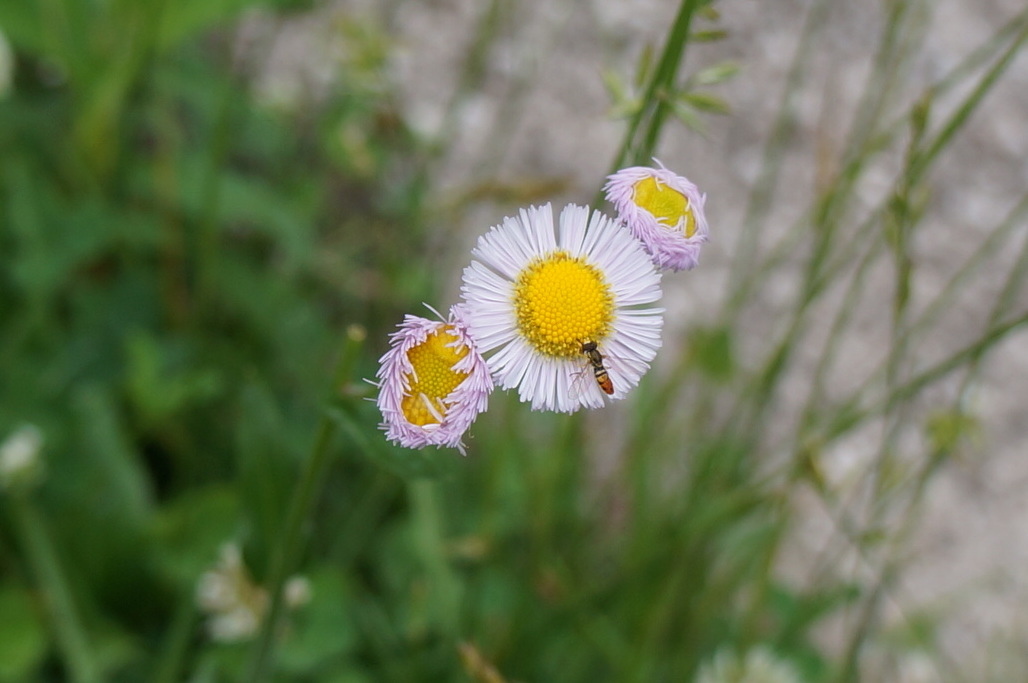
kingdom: Plantae
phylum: Tracheophyta
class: Magnoliopsida
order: Asterales
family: Asteraceae
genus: Erigeron
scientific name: Erigeron philadelphicus
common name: Robin's-plantain
